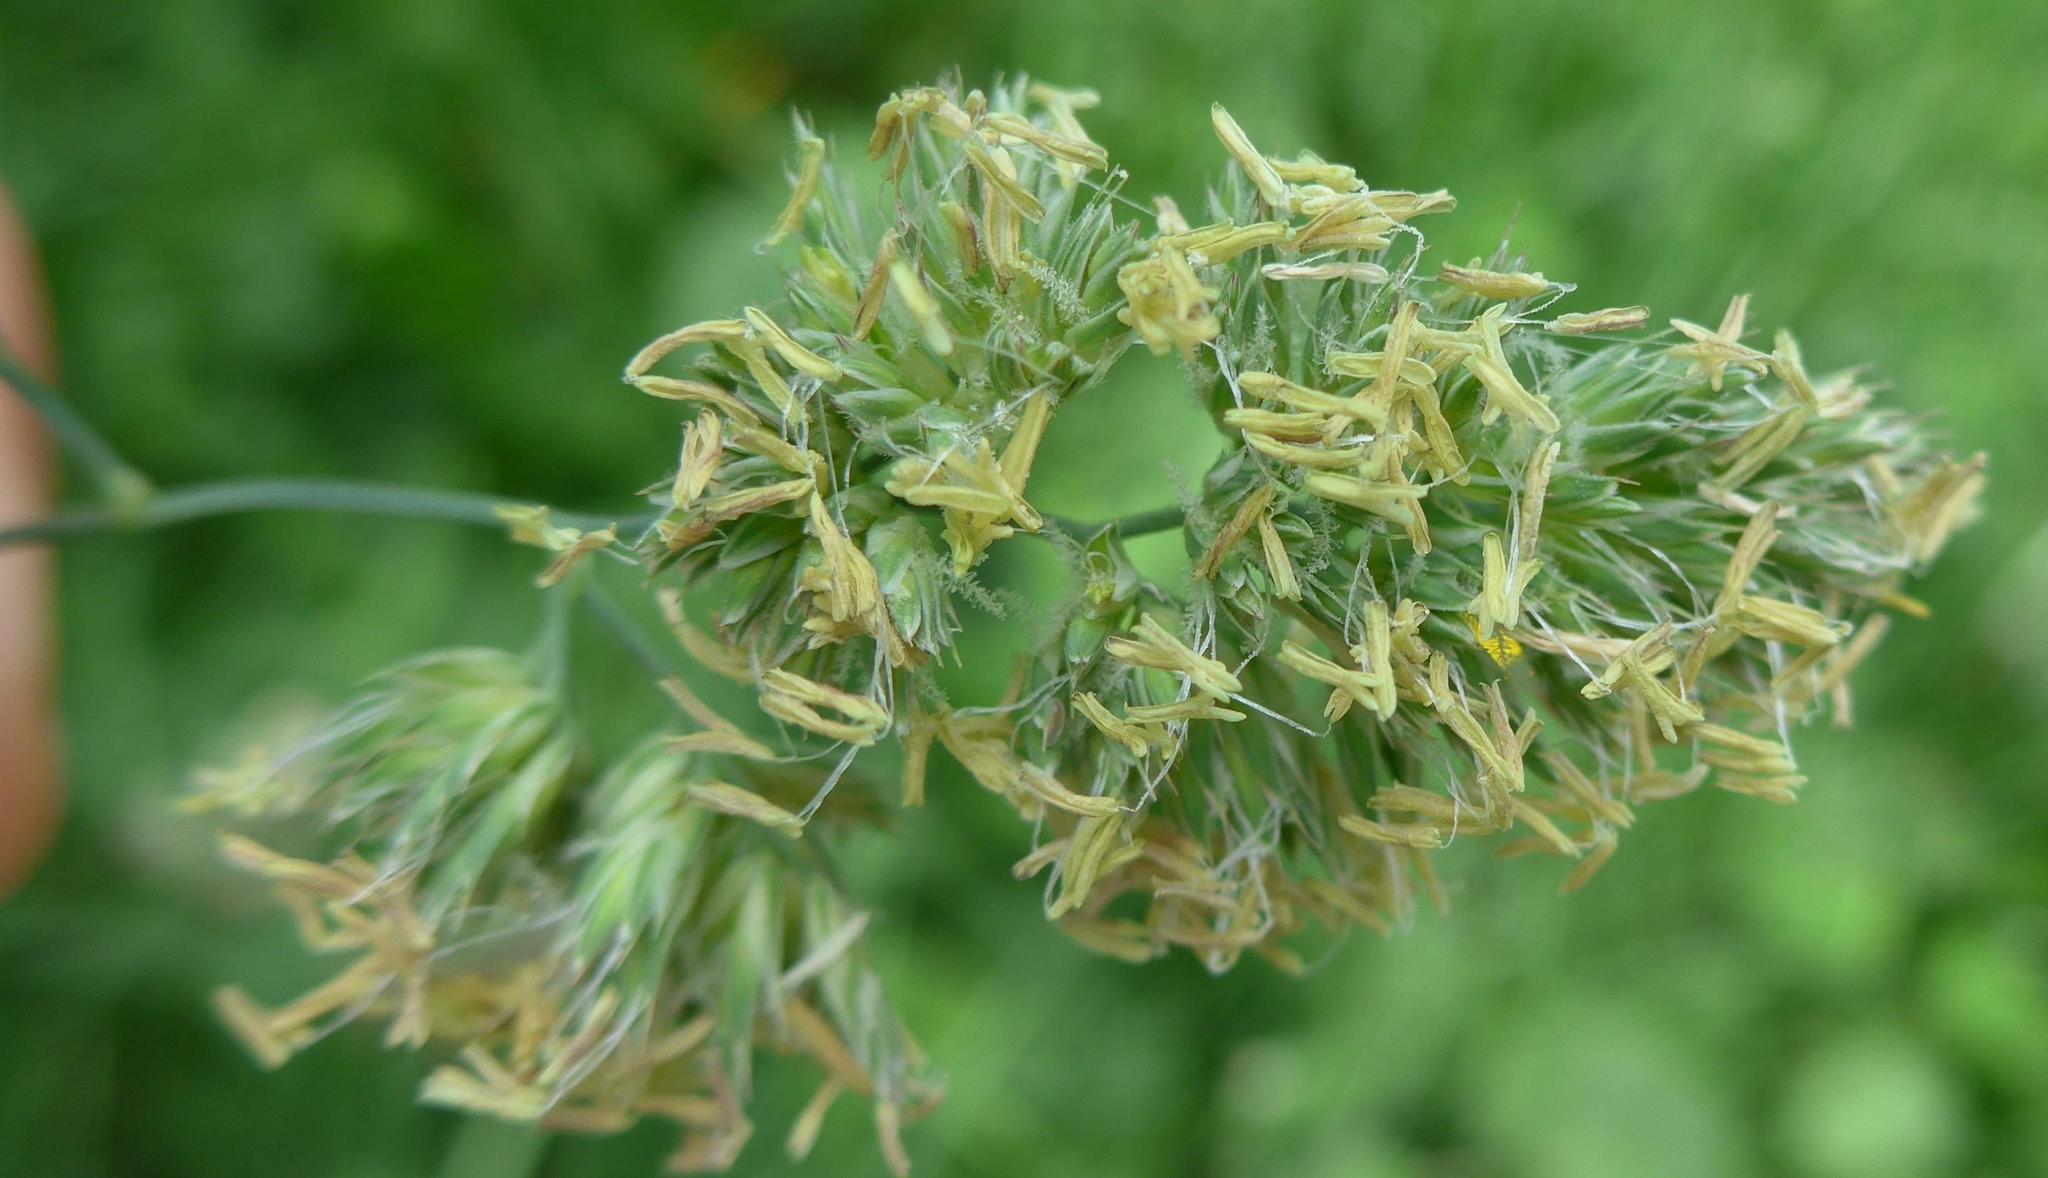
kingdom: Plantae
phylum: Tracheophyta
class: Liliopsida
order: Poales
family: Poaceae
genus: Dactylis
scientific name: Dactylis glomerata
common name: Orchardgrass
